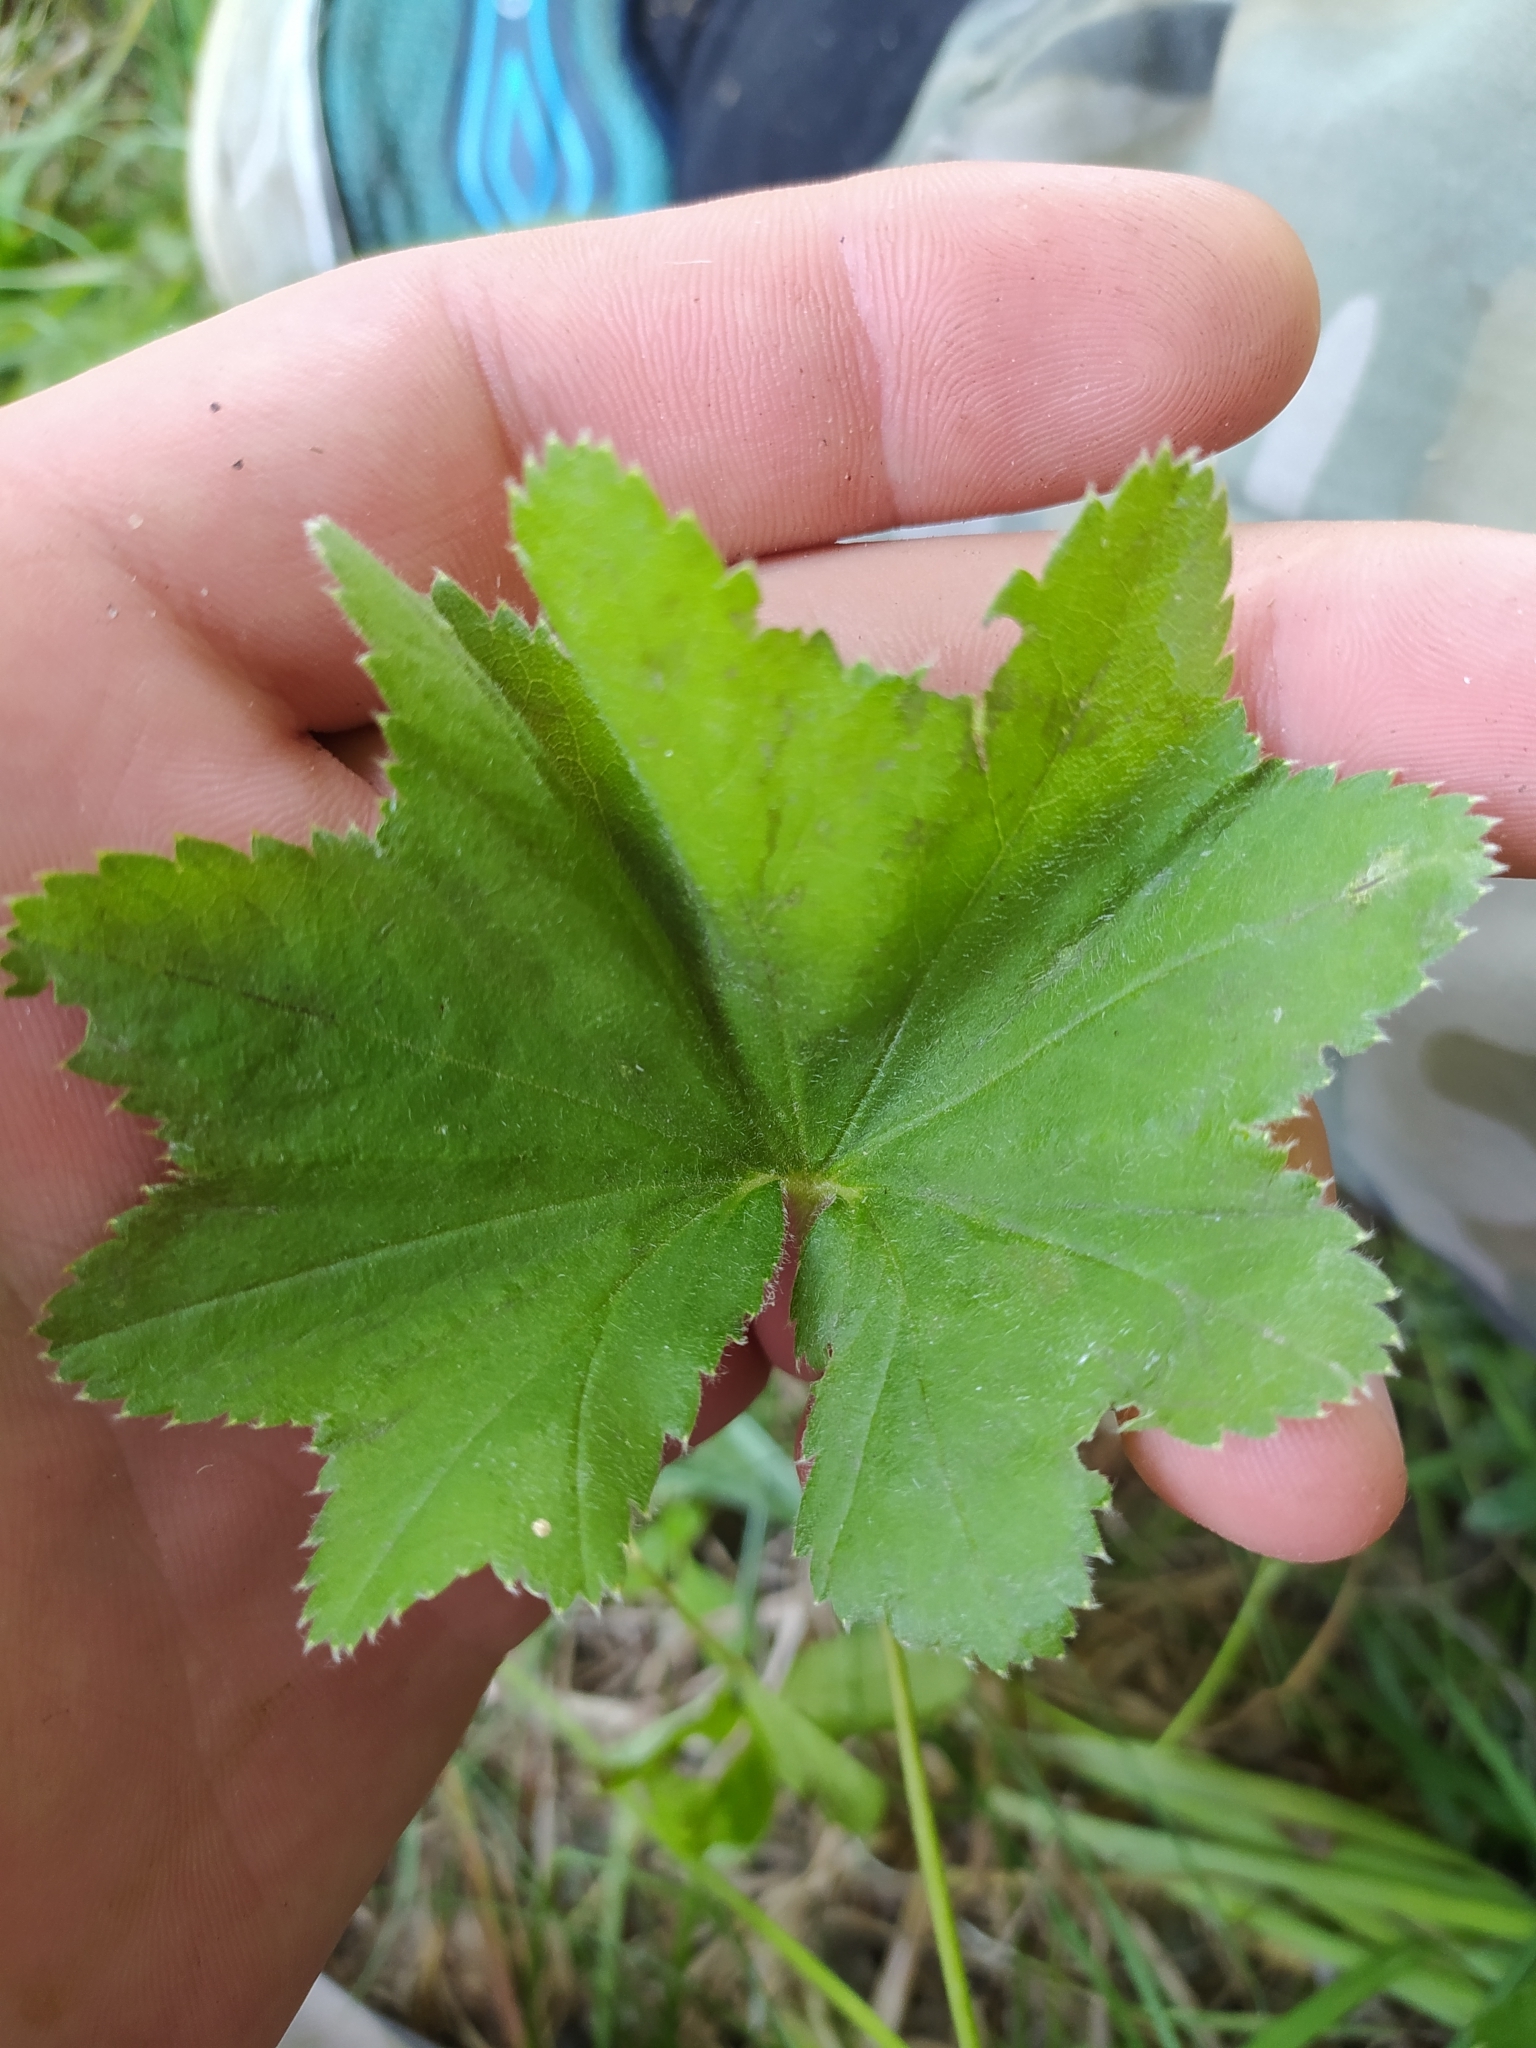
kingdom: Plantae
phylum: Tracheophyta
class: Magnoliopsida
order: Rosales
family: Rosaceae
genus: Alchemilla
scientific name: Alchemilla vulgaris
